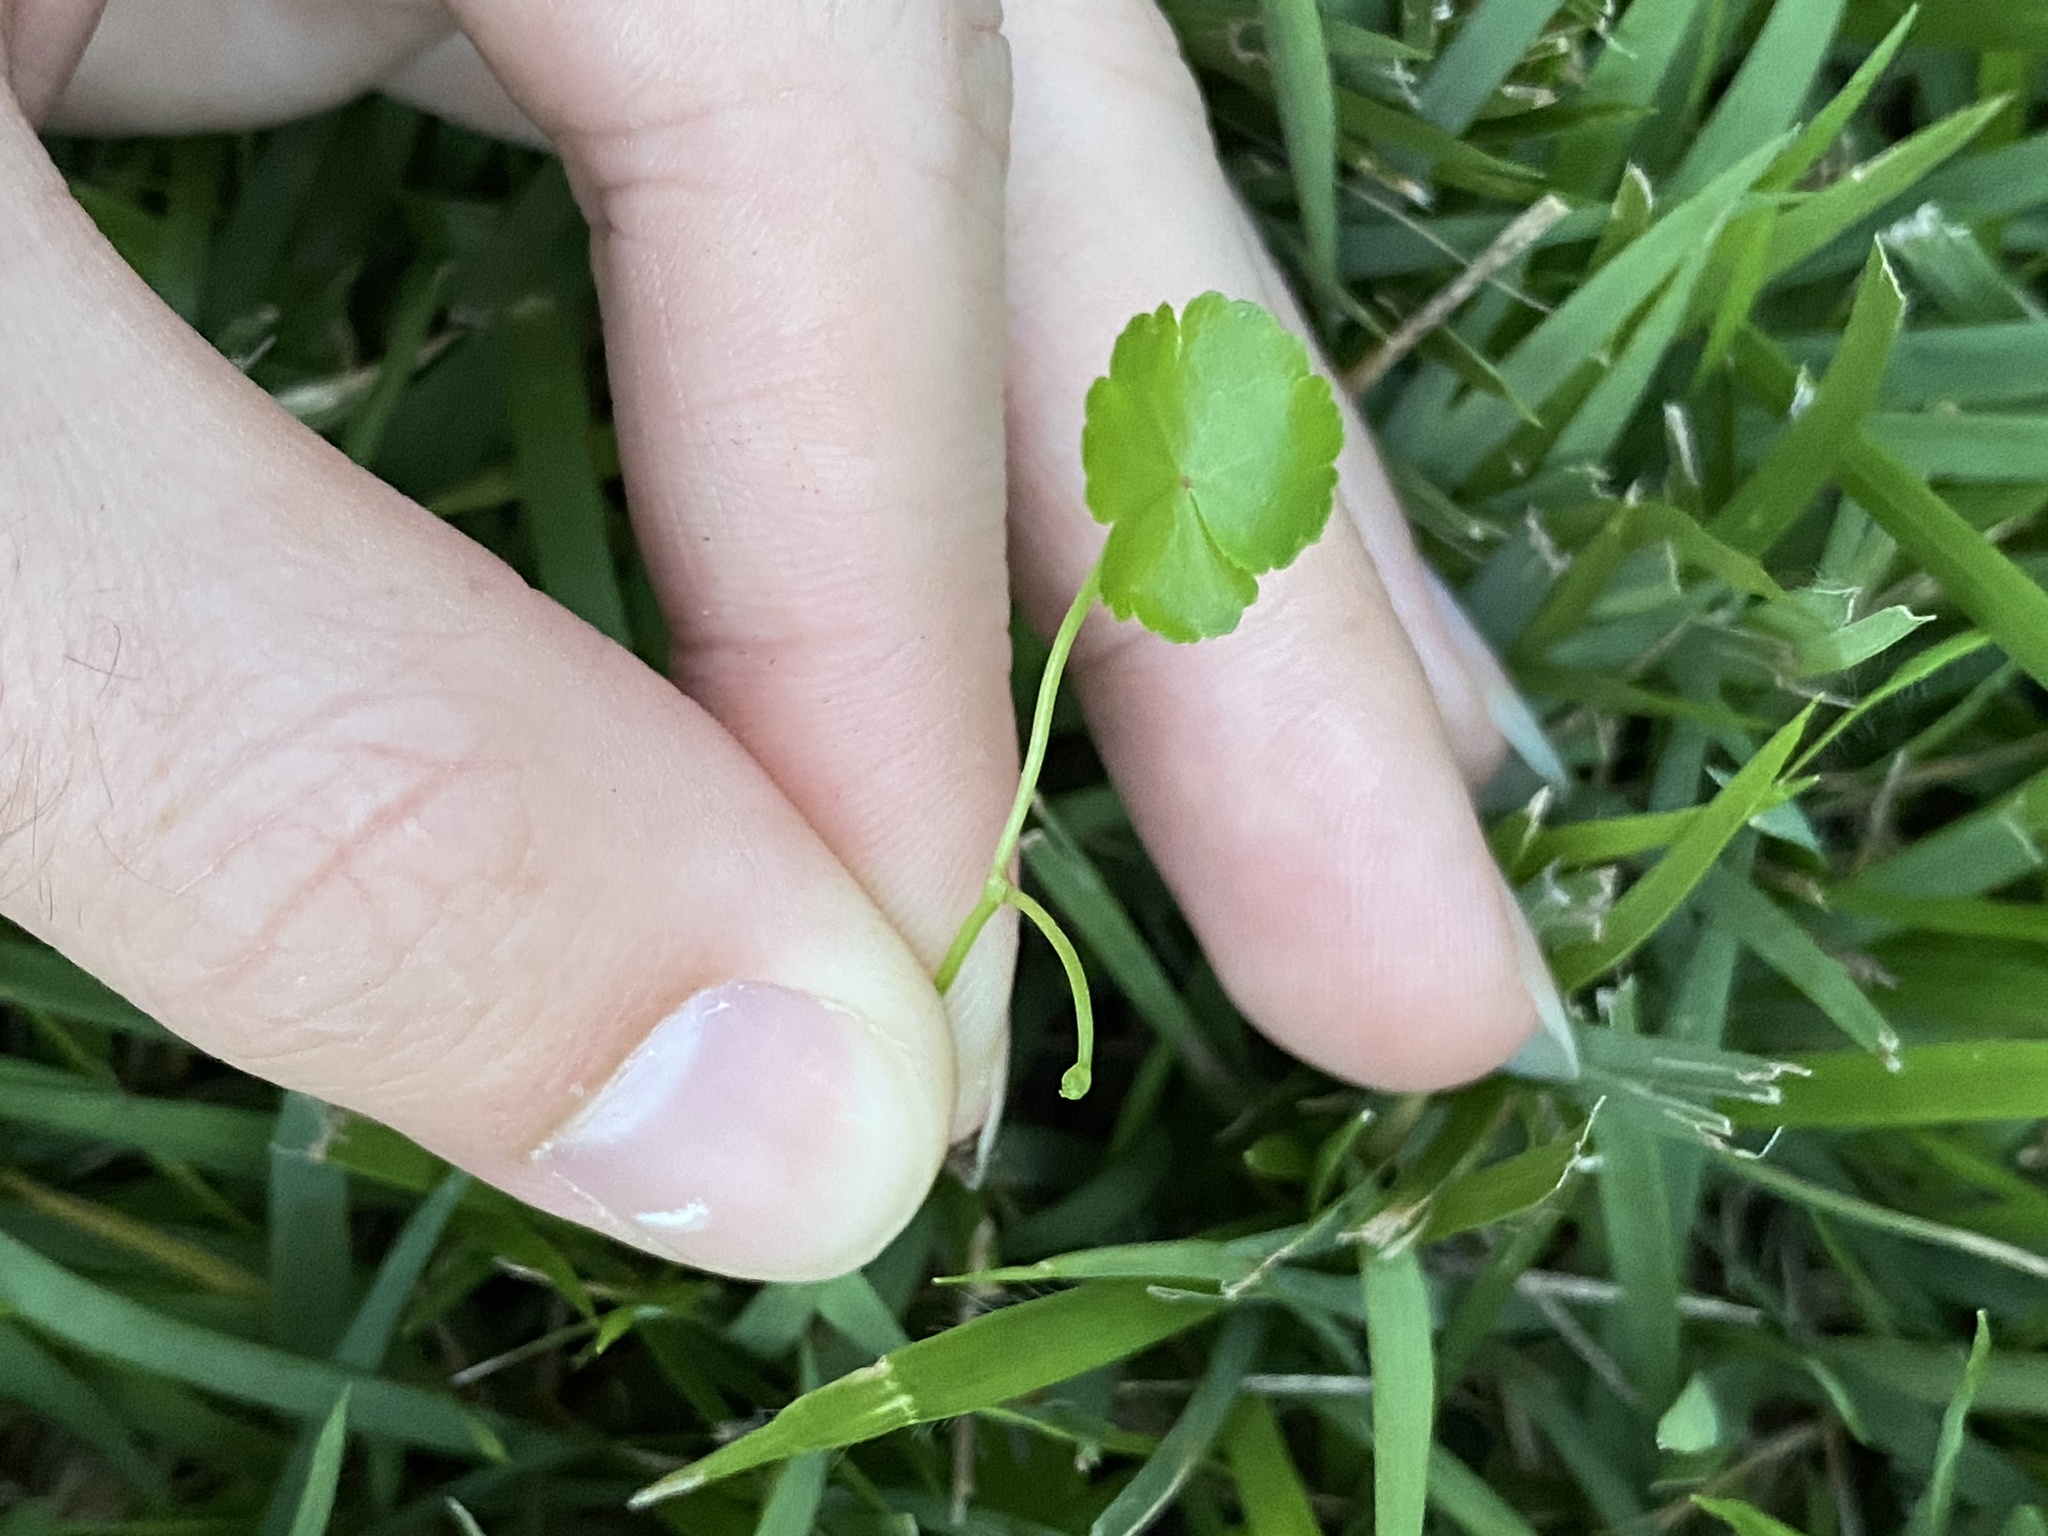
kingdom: Plantae
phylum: Tracheophyta
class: Magnoliopsida
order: Apiales
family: Araliaceae
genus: Hydrocotyle
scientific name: Hydrocotyle sibthorpioides
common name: Lawn marshpennywort
